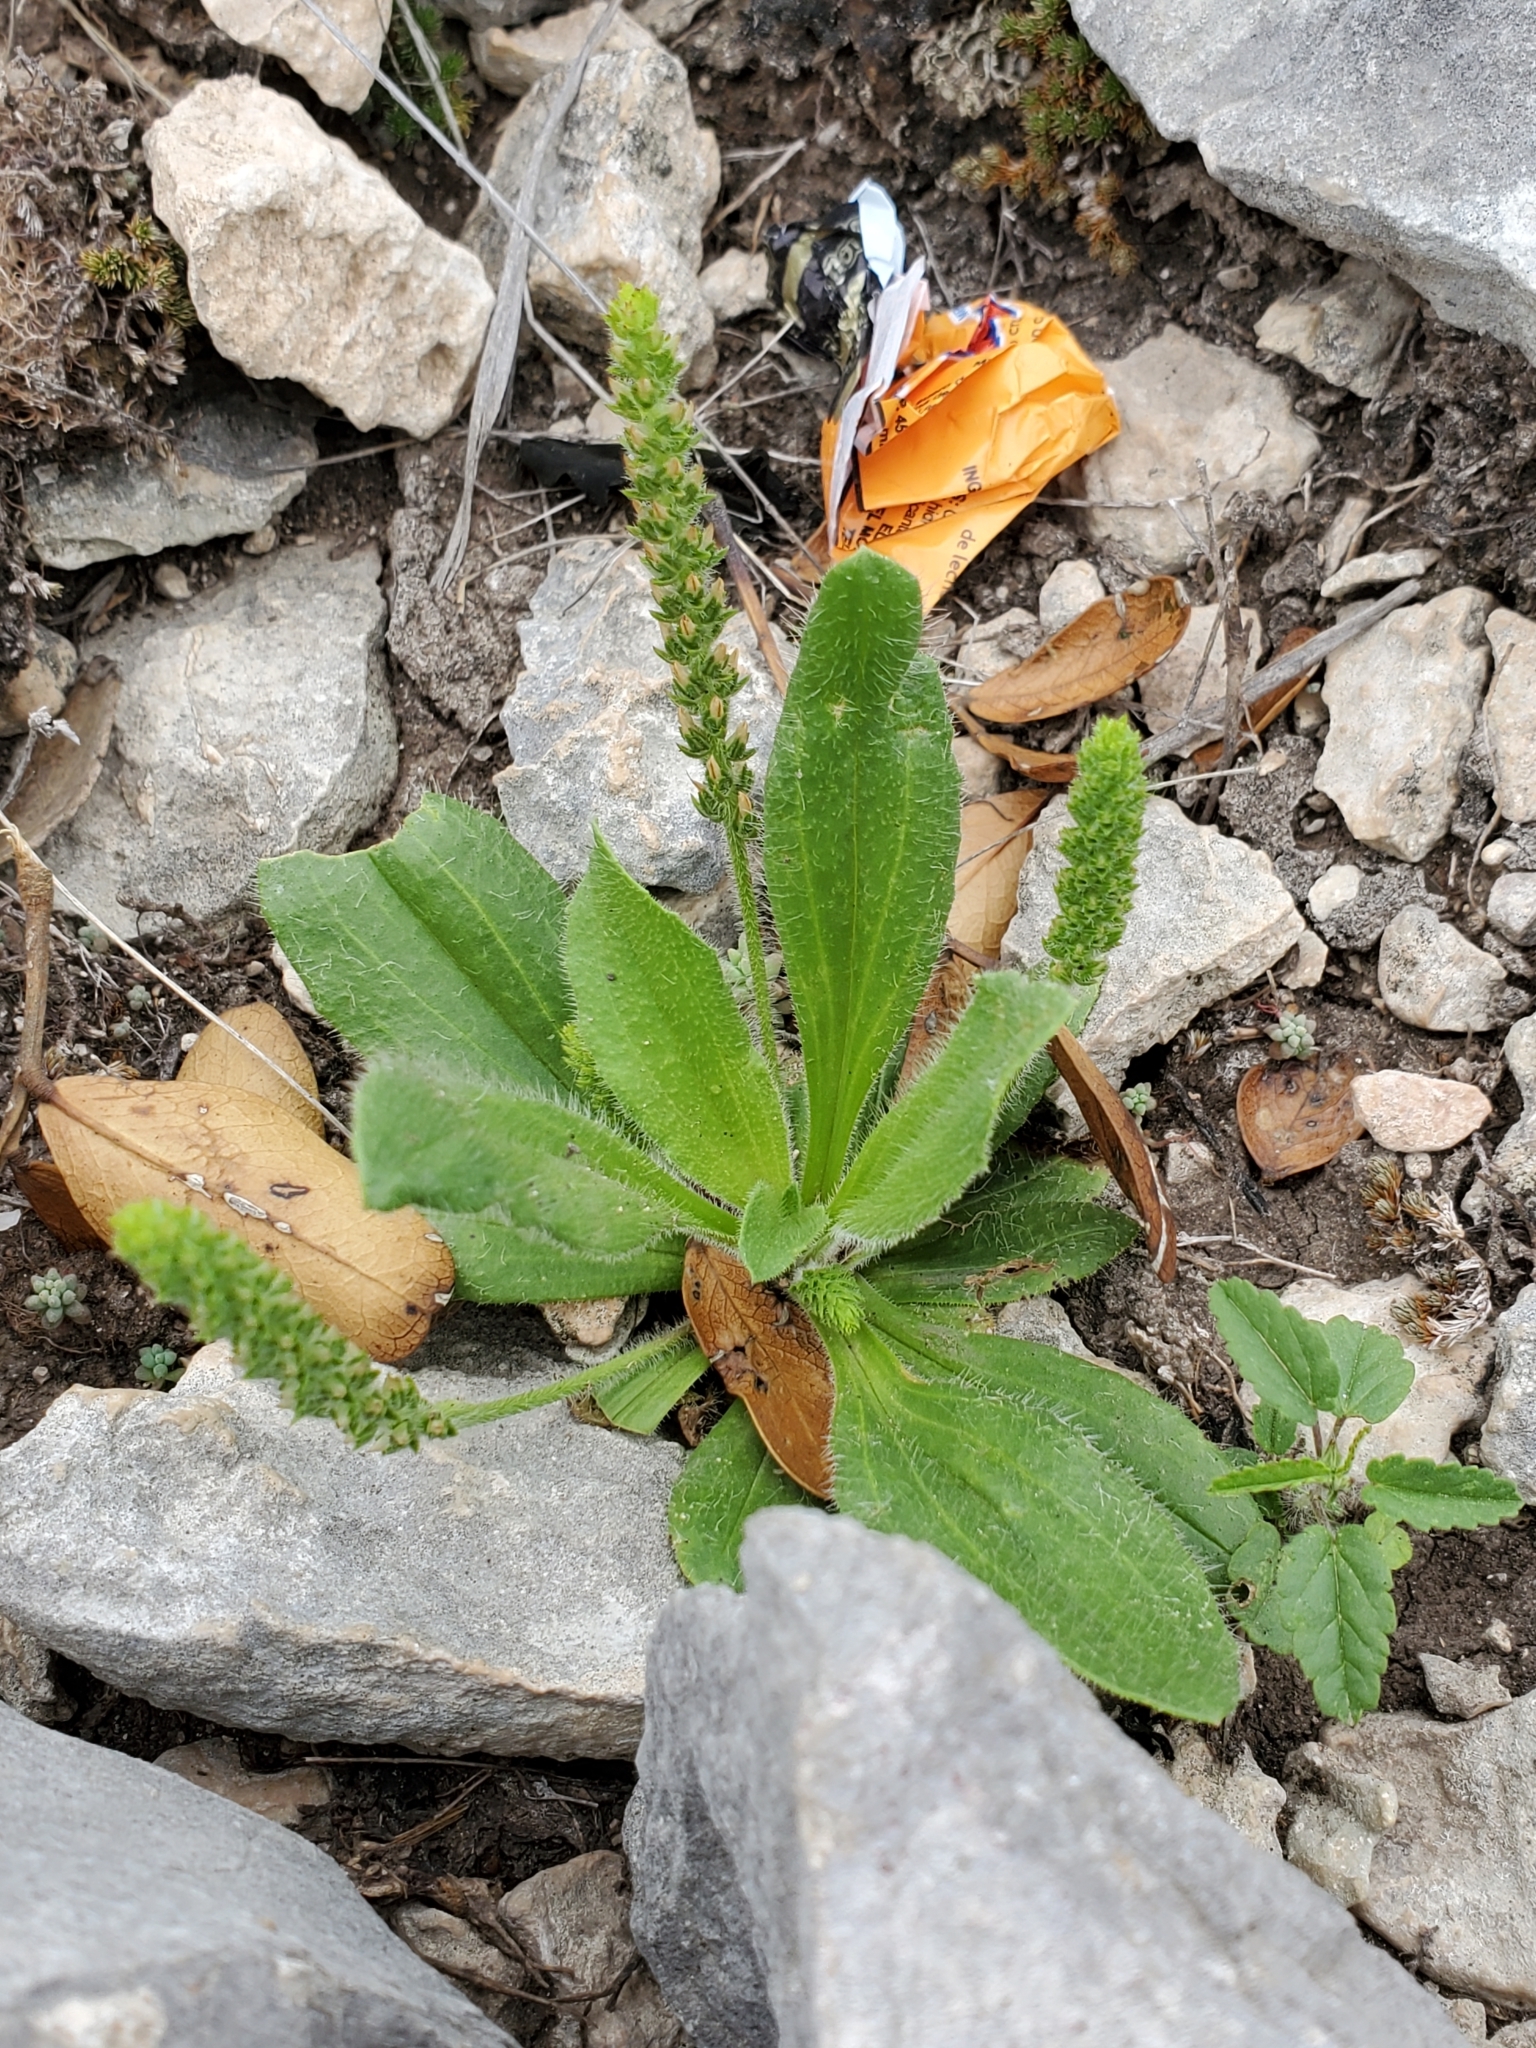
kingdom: Plantae
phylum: Tracheophyta
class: Magnoliopsida
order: Lamiales
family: Plantaginaceae
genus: Plantago
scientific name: Plantago rhodosperma
